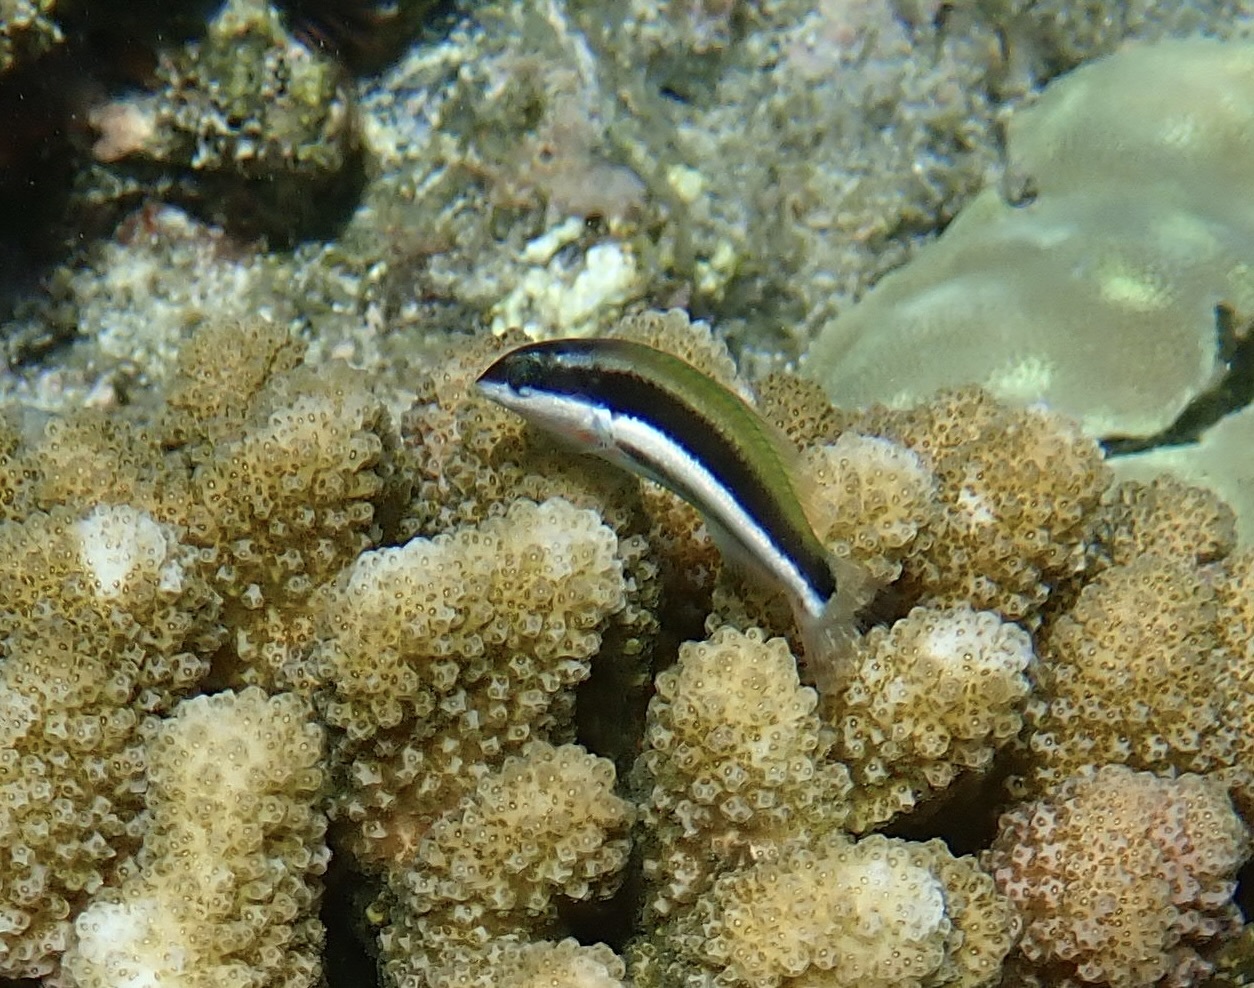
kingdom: Animalia
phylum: Chordata
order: Perciformes
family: Labridae
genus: Thalassoma
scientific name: Thalassoma duperrey
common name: Saddle wrasse
